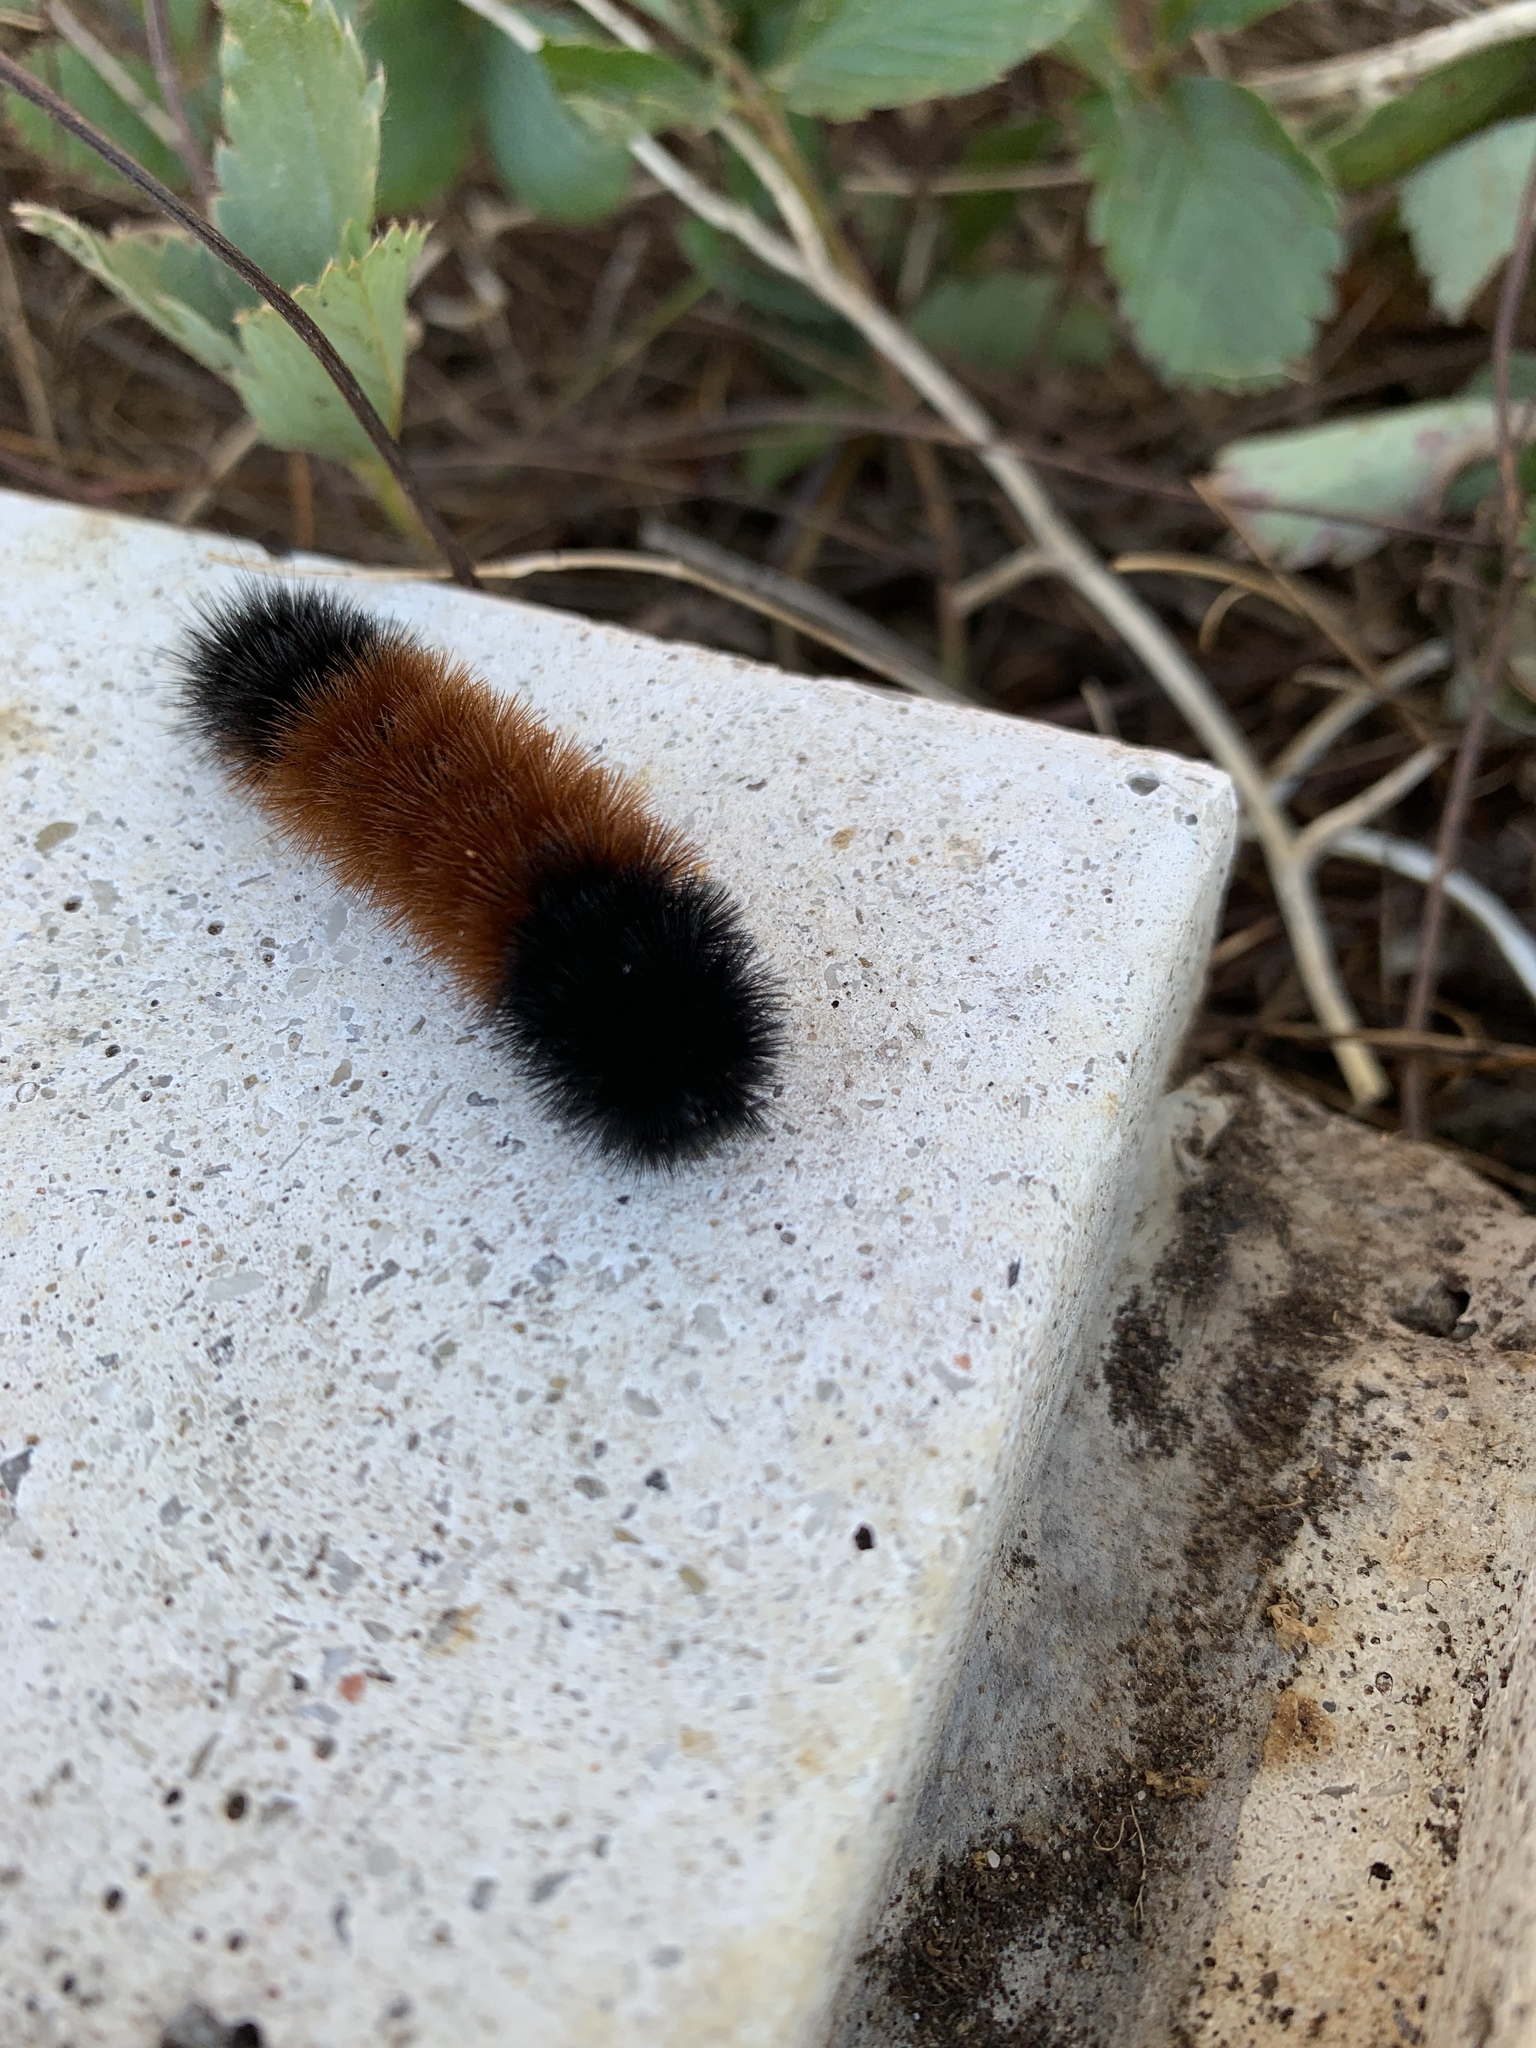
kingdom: Animalia
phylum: Arthropoda
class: Insecta
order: Lepidoptera
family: Erebidae
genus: Pyrrharctia
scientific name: Pyrrharctia isabella
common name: Isabella tiger moth
